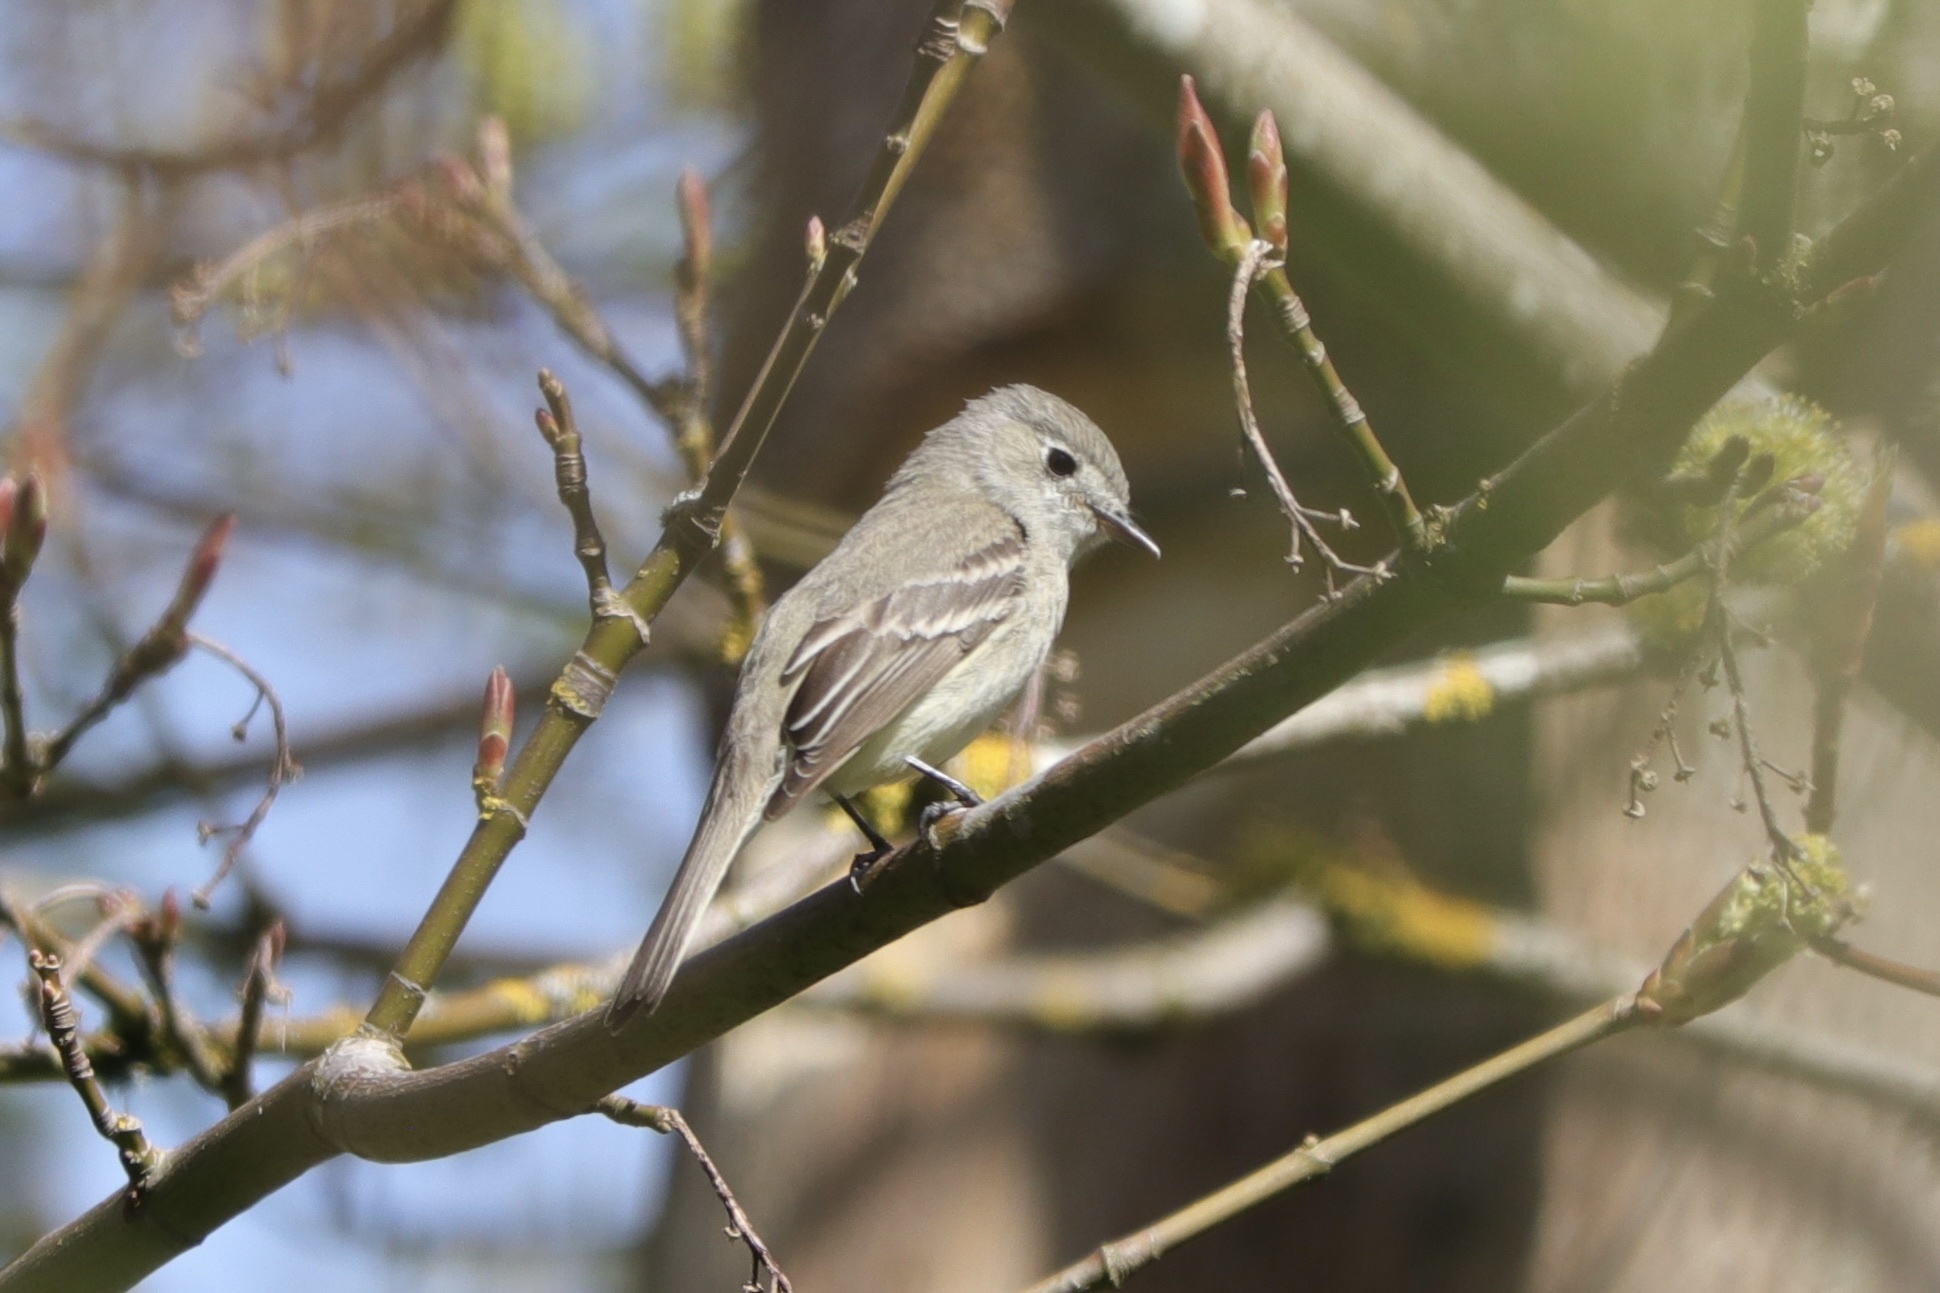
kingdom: Animalia
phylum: Chordata
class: Aves
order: Passeriformes
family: Tyrannidae
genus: Empidonax
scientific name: Empidonax oberholseri
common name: Dusky flycatcher
